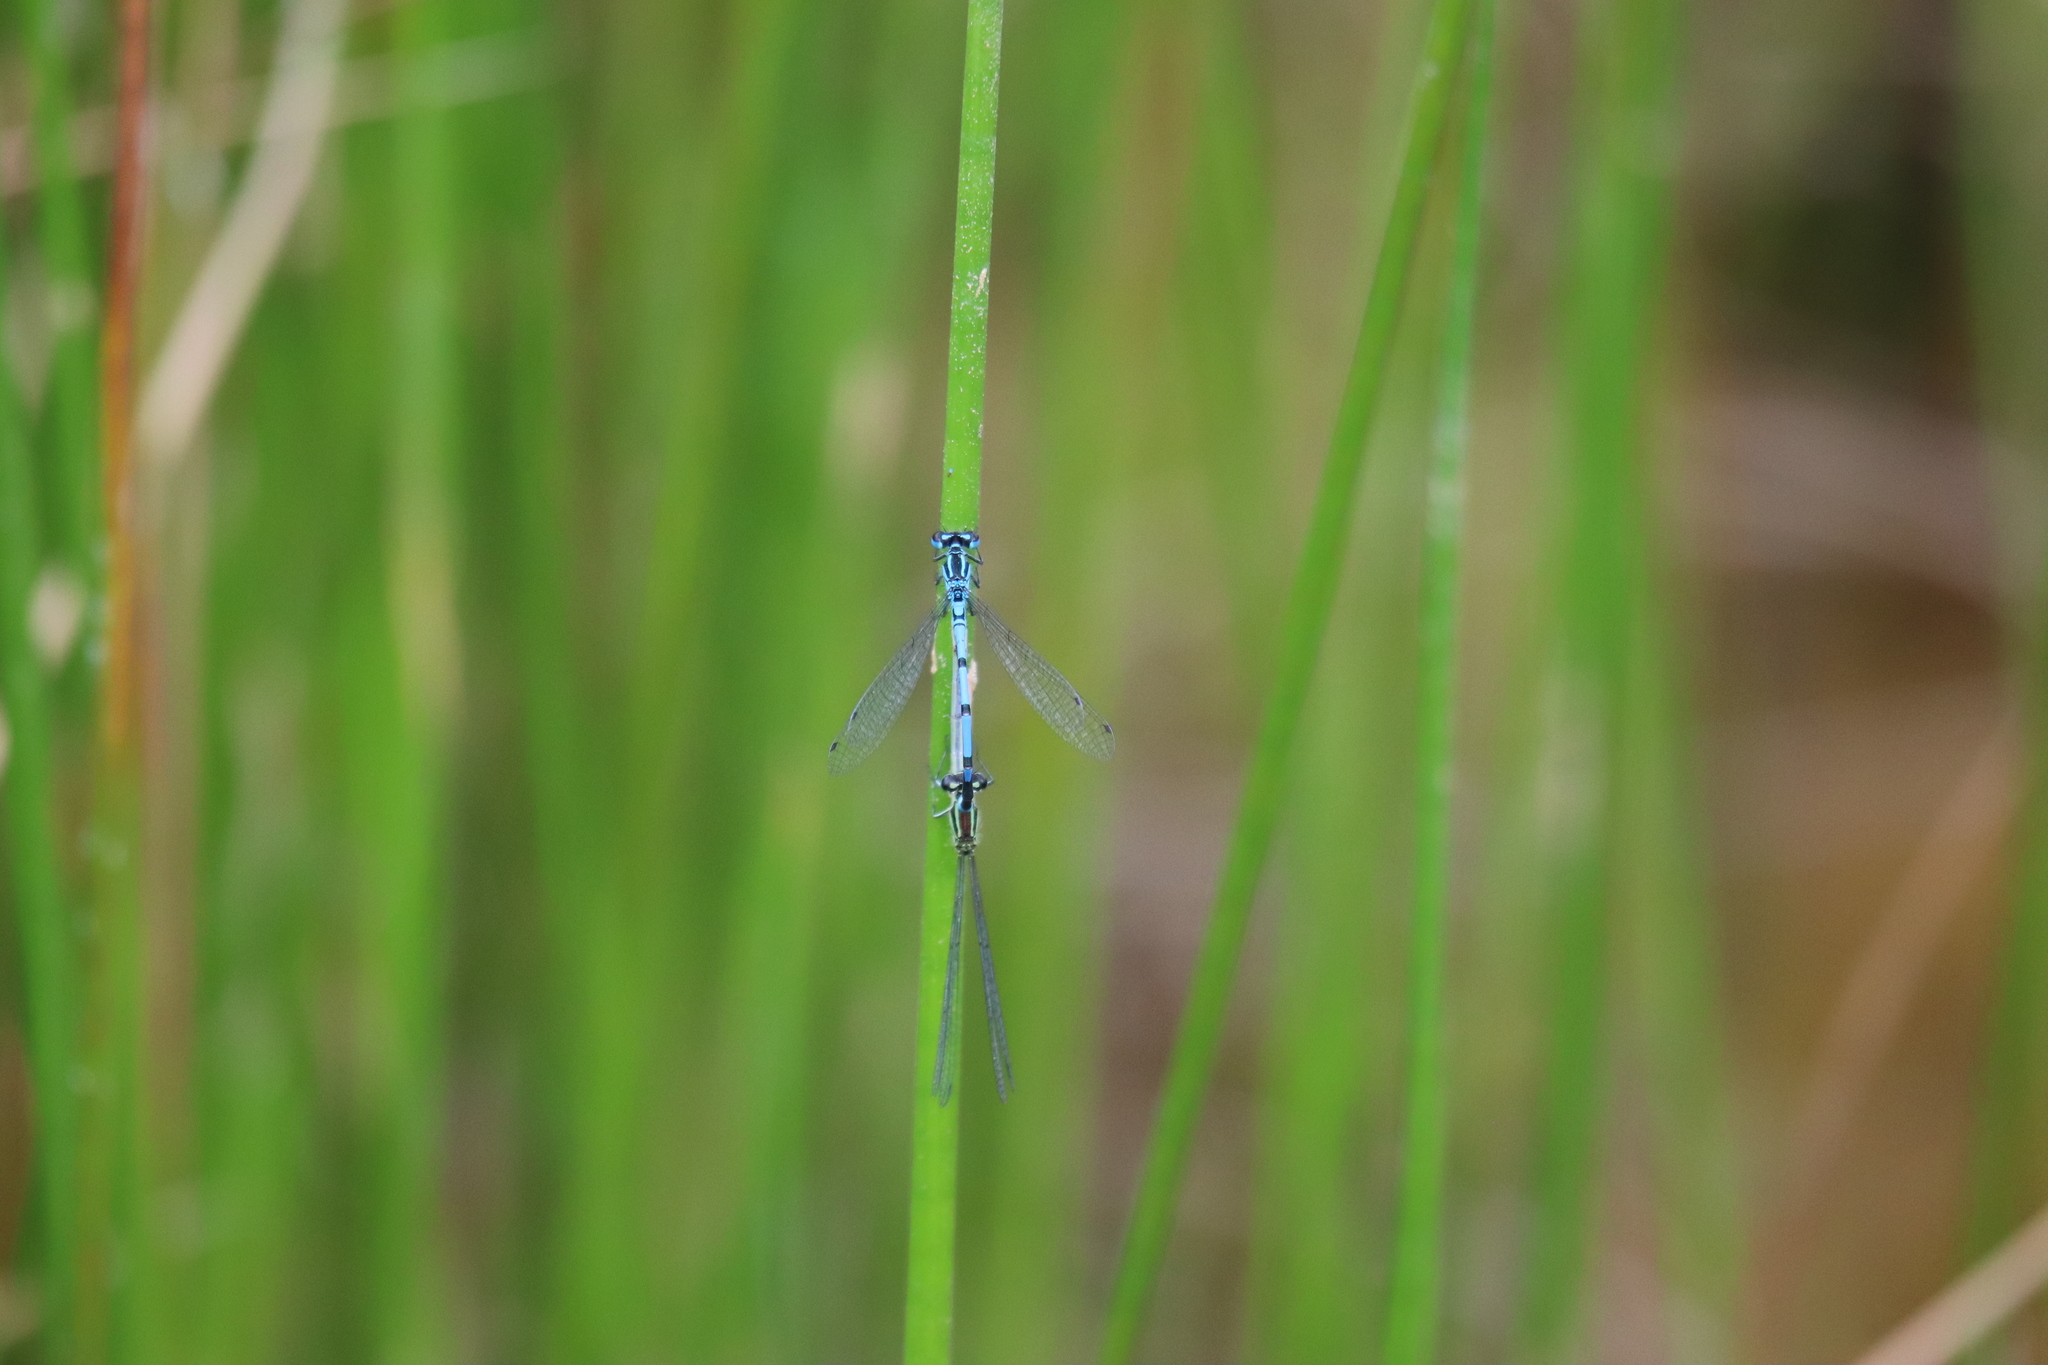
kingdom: Animalia
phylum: Arthropoda
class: Insecta
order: Odonata
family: Coenagrionidae
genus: Coenagrion
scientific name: Coenagrion puella
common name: Azure damselfly
